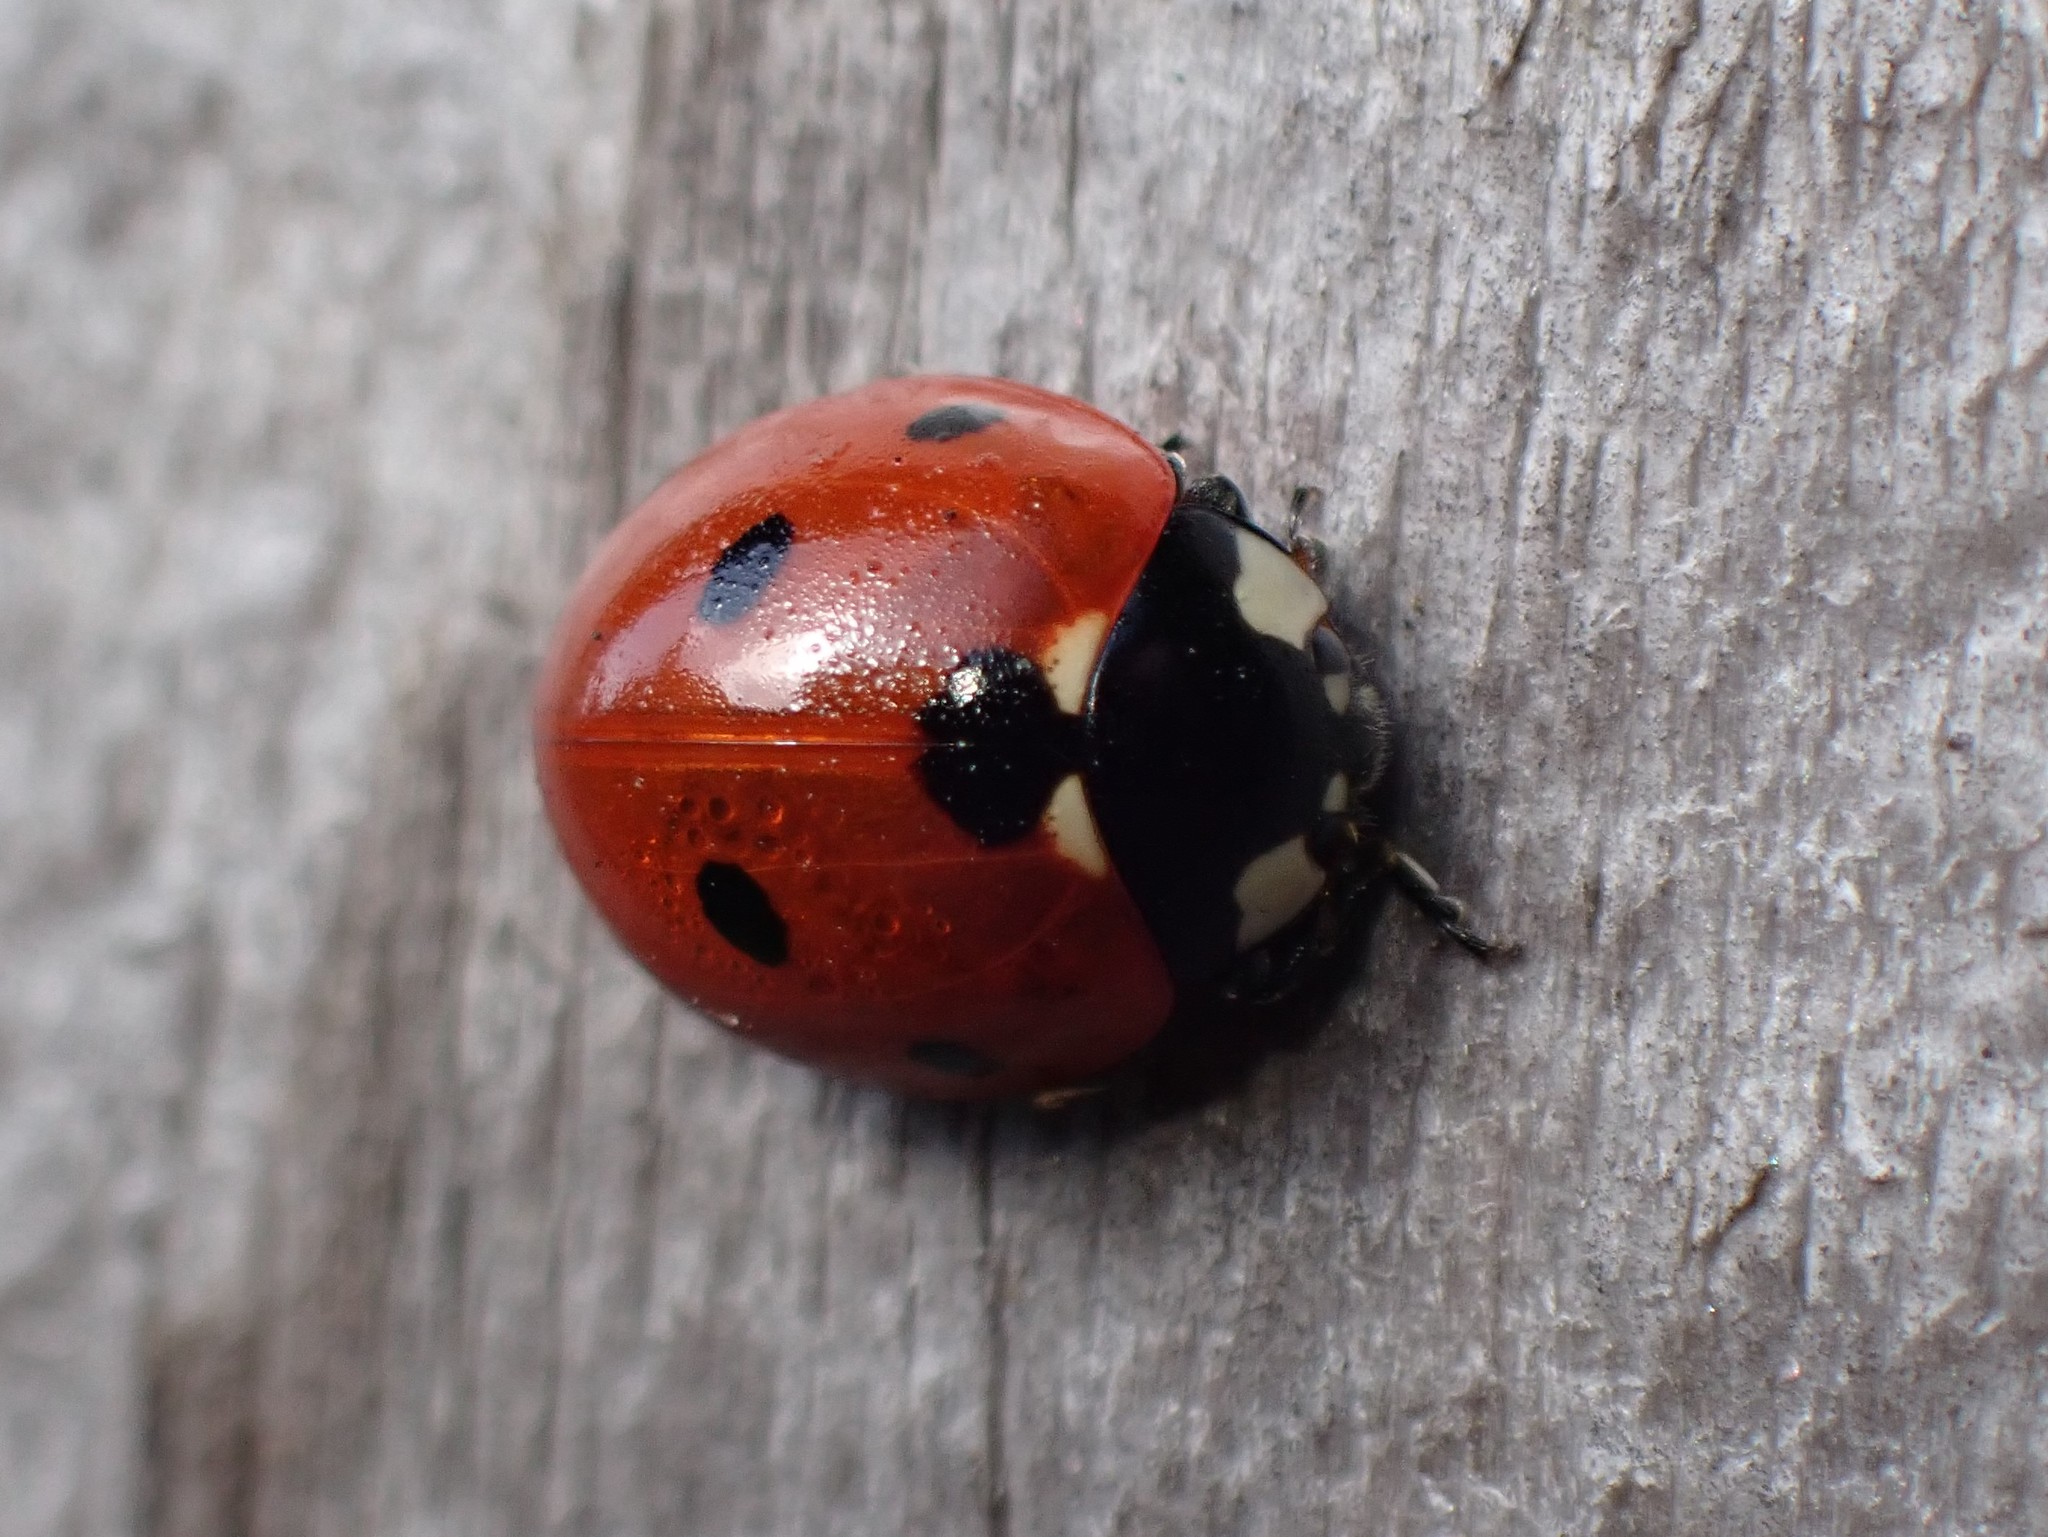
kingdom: Animalia
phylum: Arthropoda
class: Insecta
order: Coleoptera
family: Coccinellidae
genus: Coccinella
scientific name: Coccinella septempunctata
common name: Sevenspotted lady beetle
